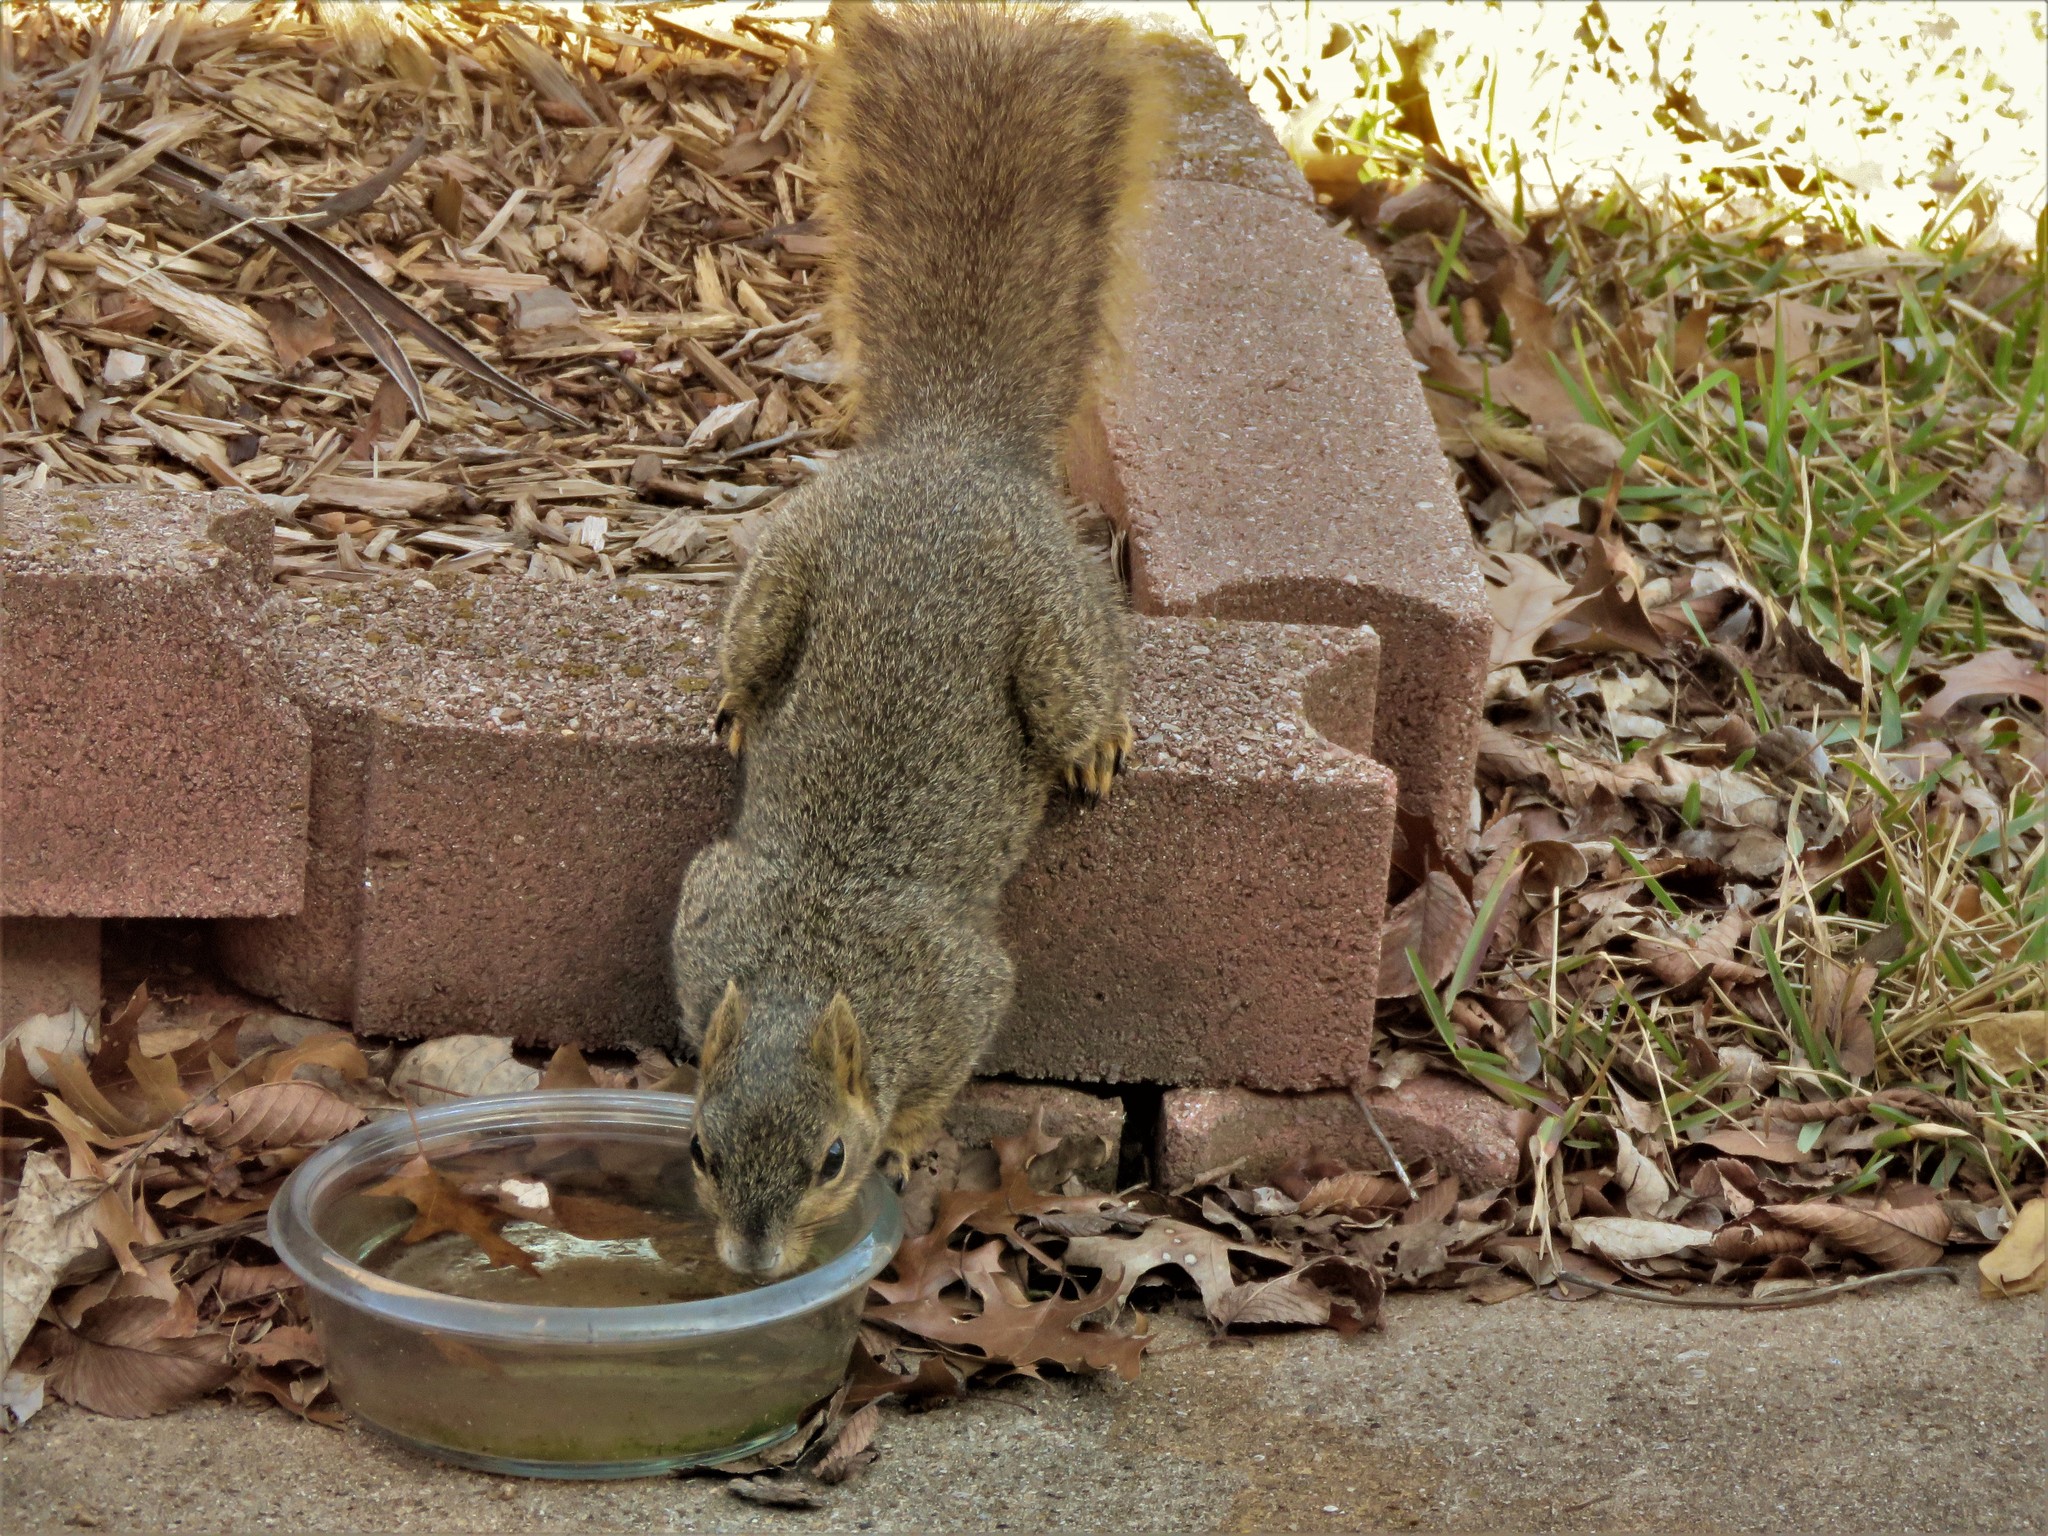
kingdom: Animalia
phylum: Chordata
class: Mammalia
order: Rodentia
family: Sciuridae
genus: Sciurus
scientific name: Sciurus niger
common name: Fox squirrel
